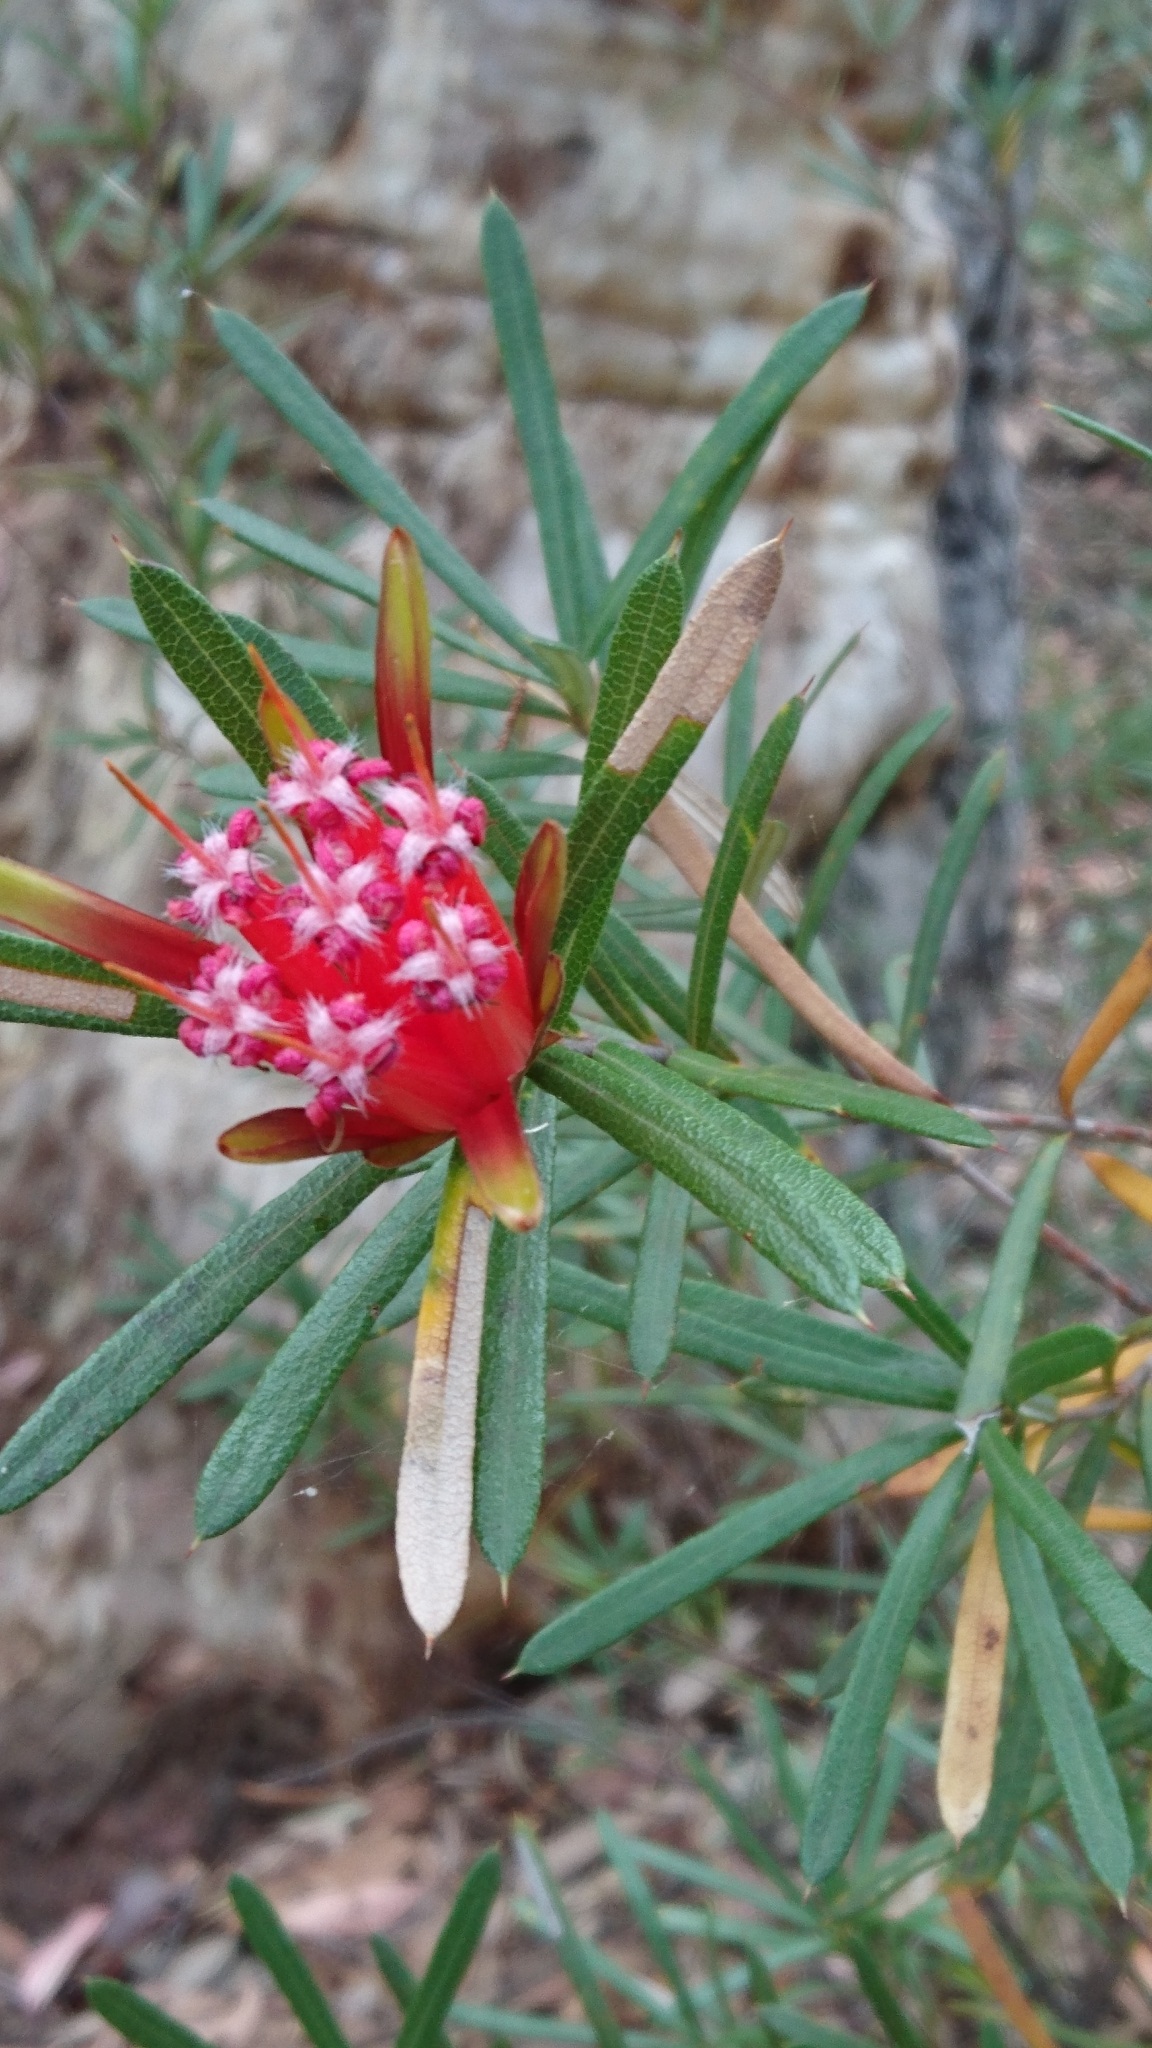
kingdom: Plantae
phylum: Tracheophyta
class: Magnoliopsida
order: Proteales
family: Proteaceae
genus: Lambertia
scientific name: Lambertia formosa
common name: Mountain-devil
